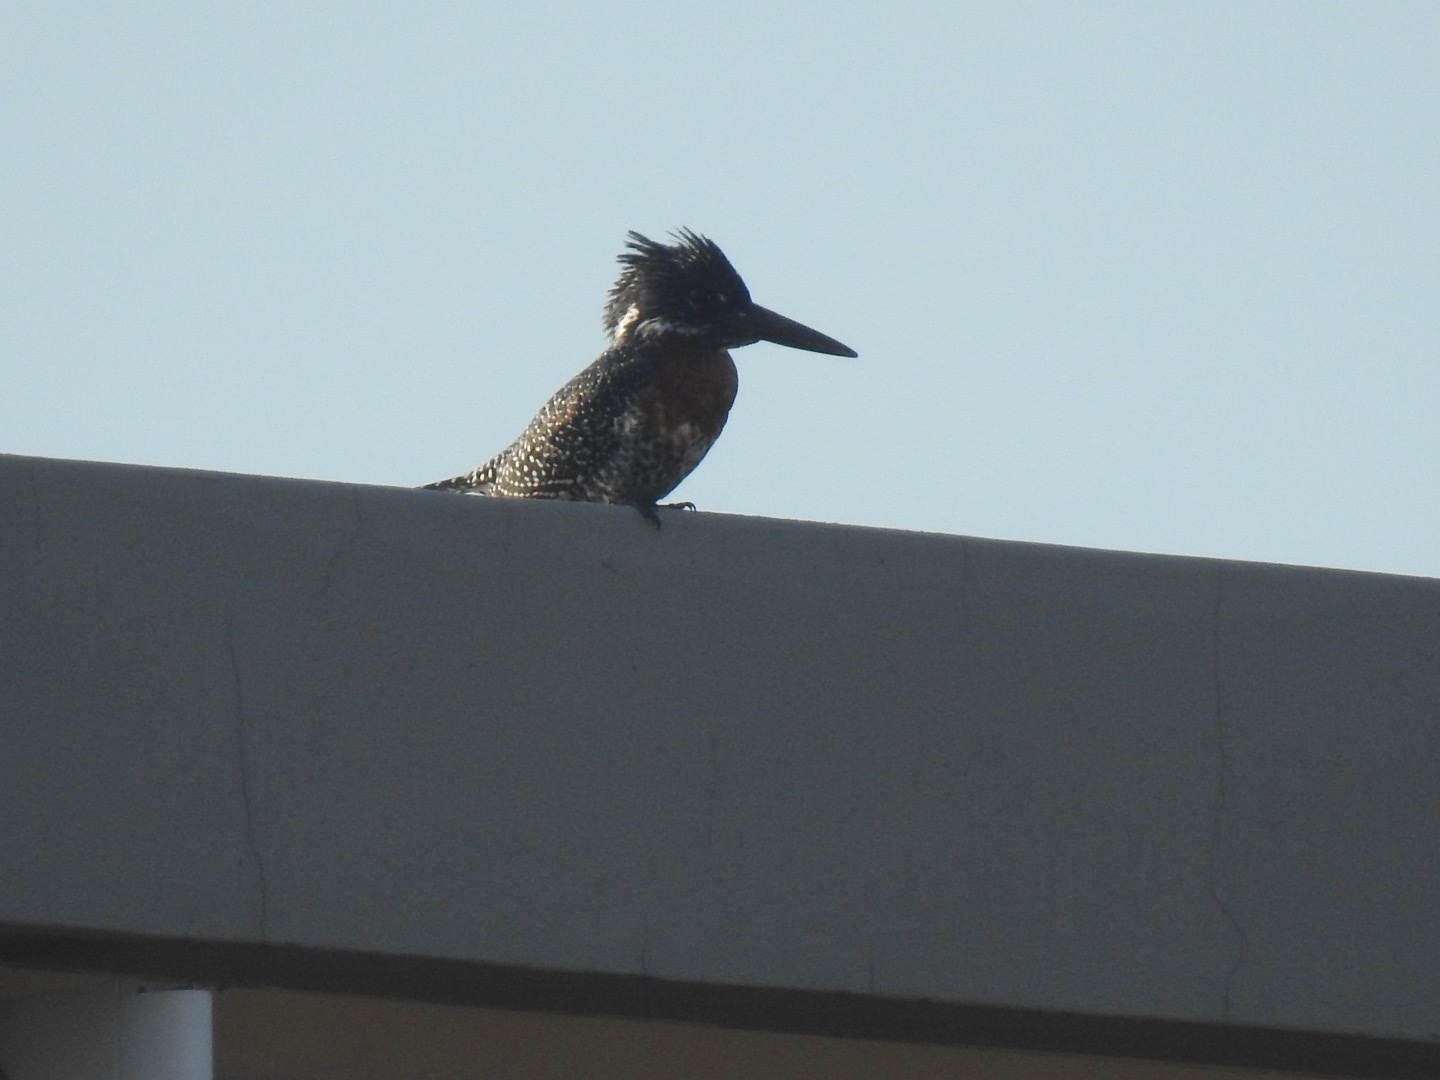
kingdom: Animalia
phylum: Chordata
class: Aves
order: Coraciiformes
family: Alcedinidae
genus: Megaceryle
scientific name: Megaceryle maxima
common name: Giant kingfisher
